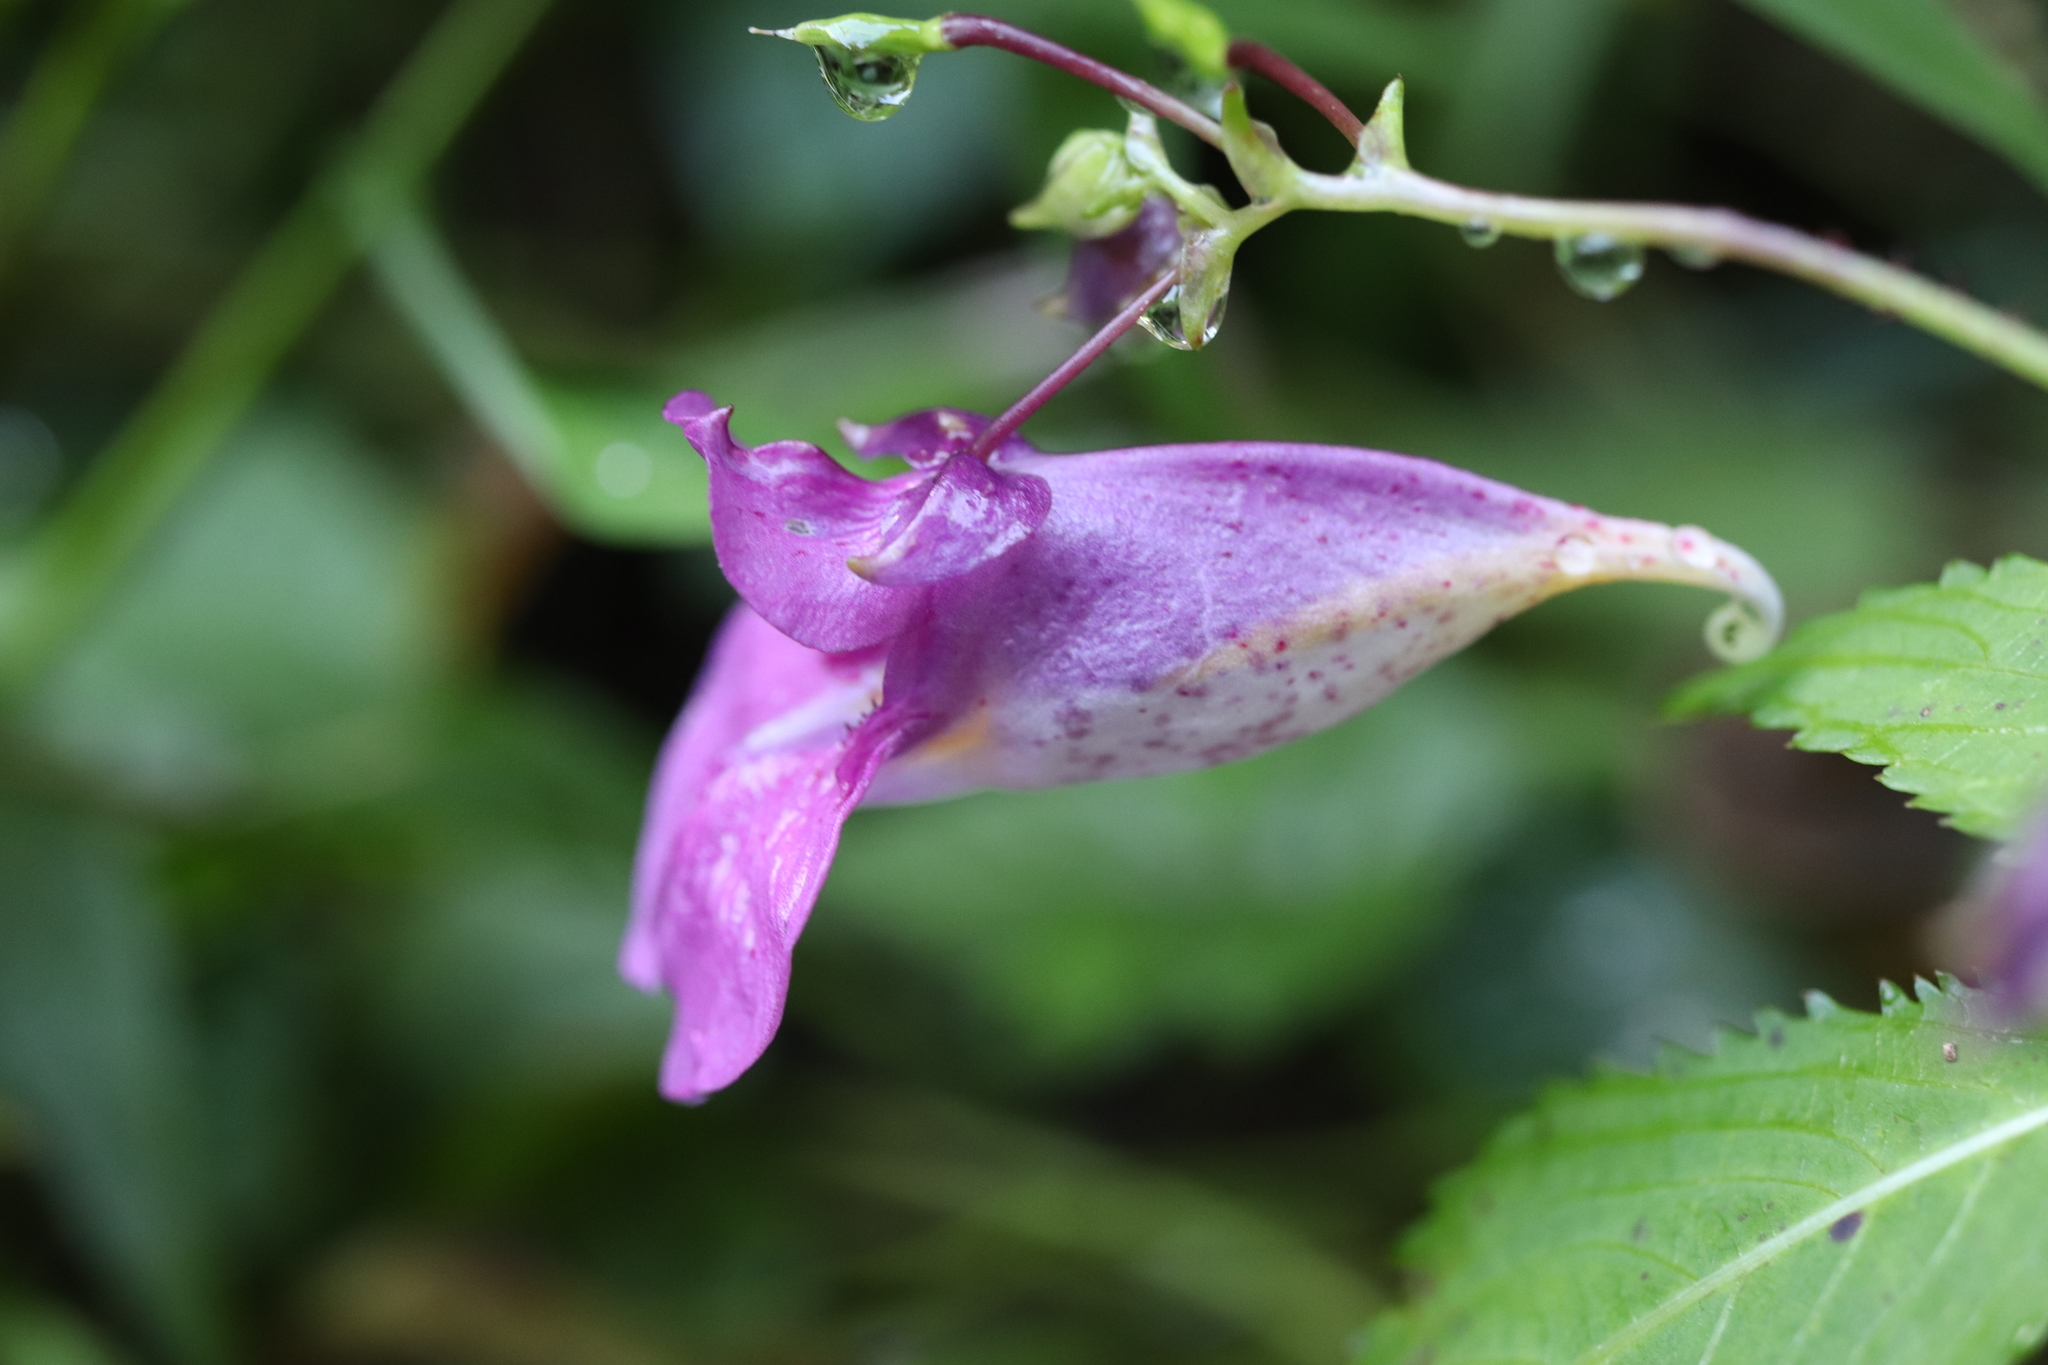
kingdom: Plantae
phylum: Tracheophyta
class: Magnoliopsida
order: Ericales
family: Balsaminaceae
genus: Impatiens
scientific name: Impatiens textorii
